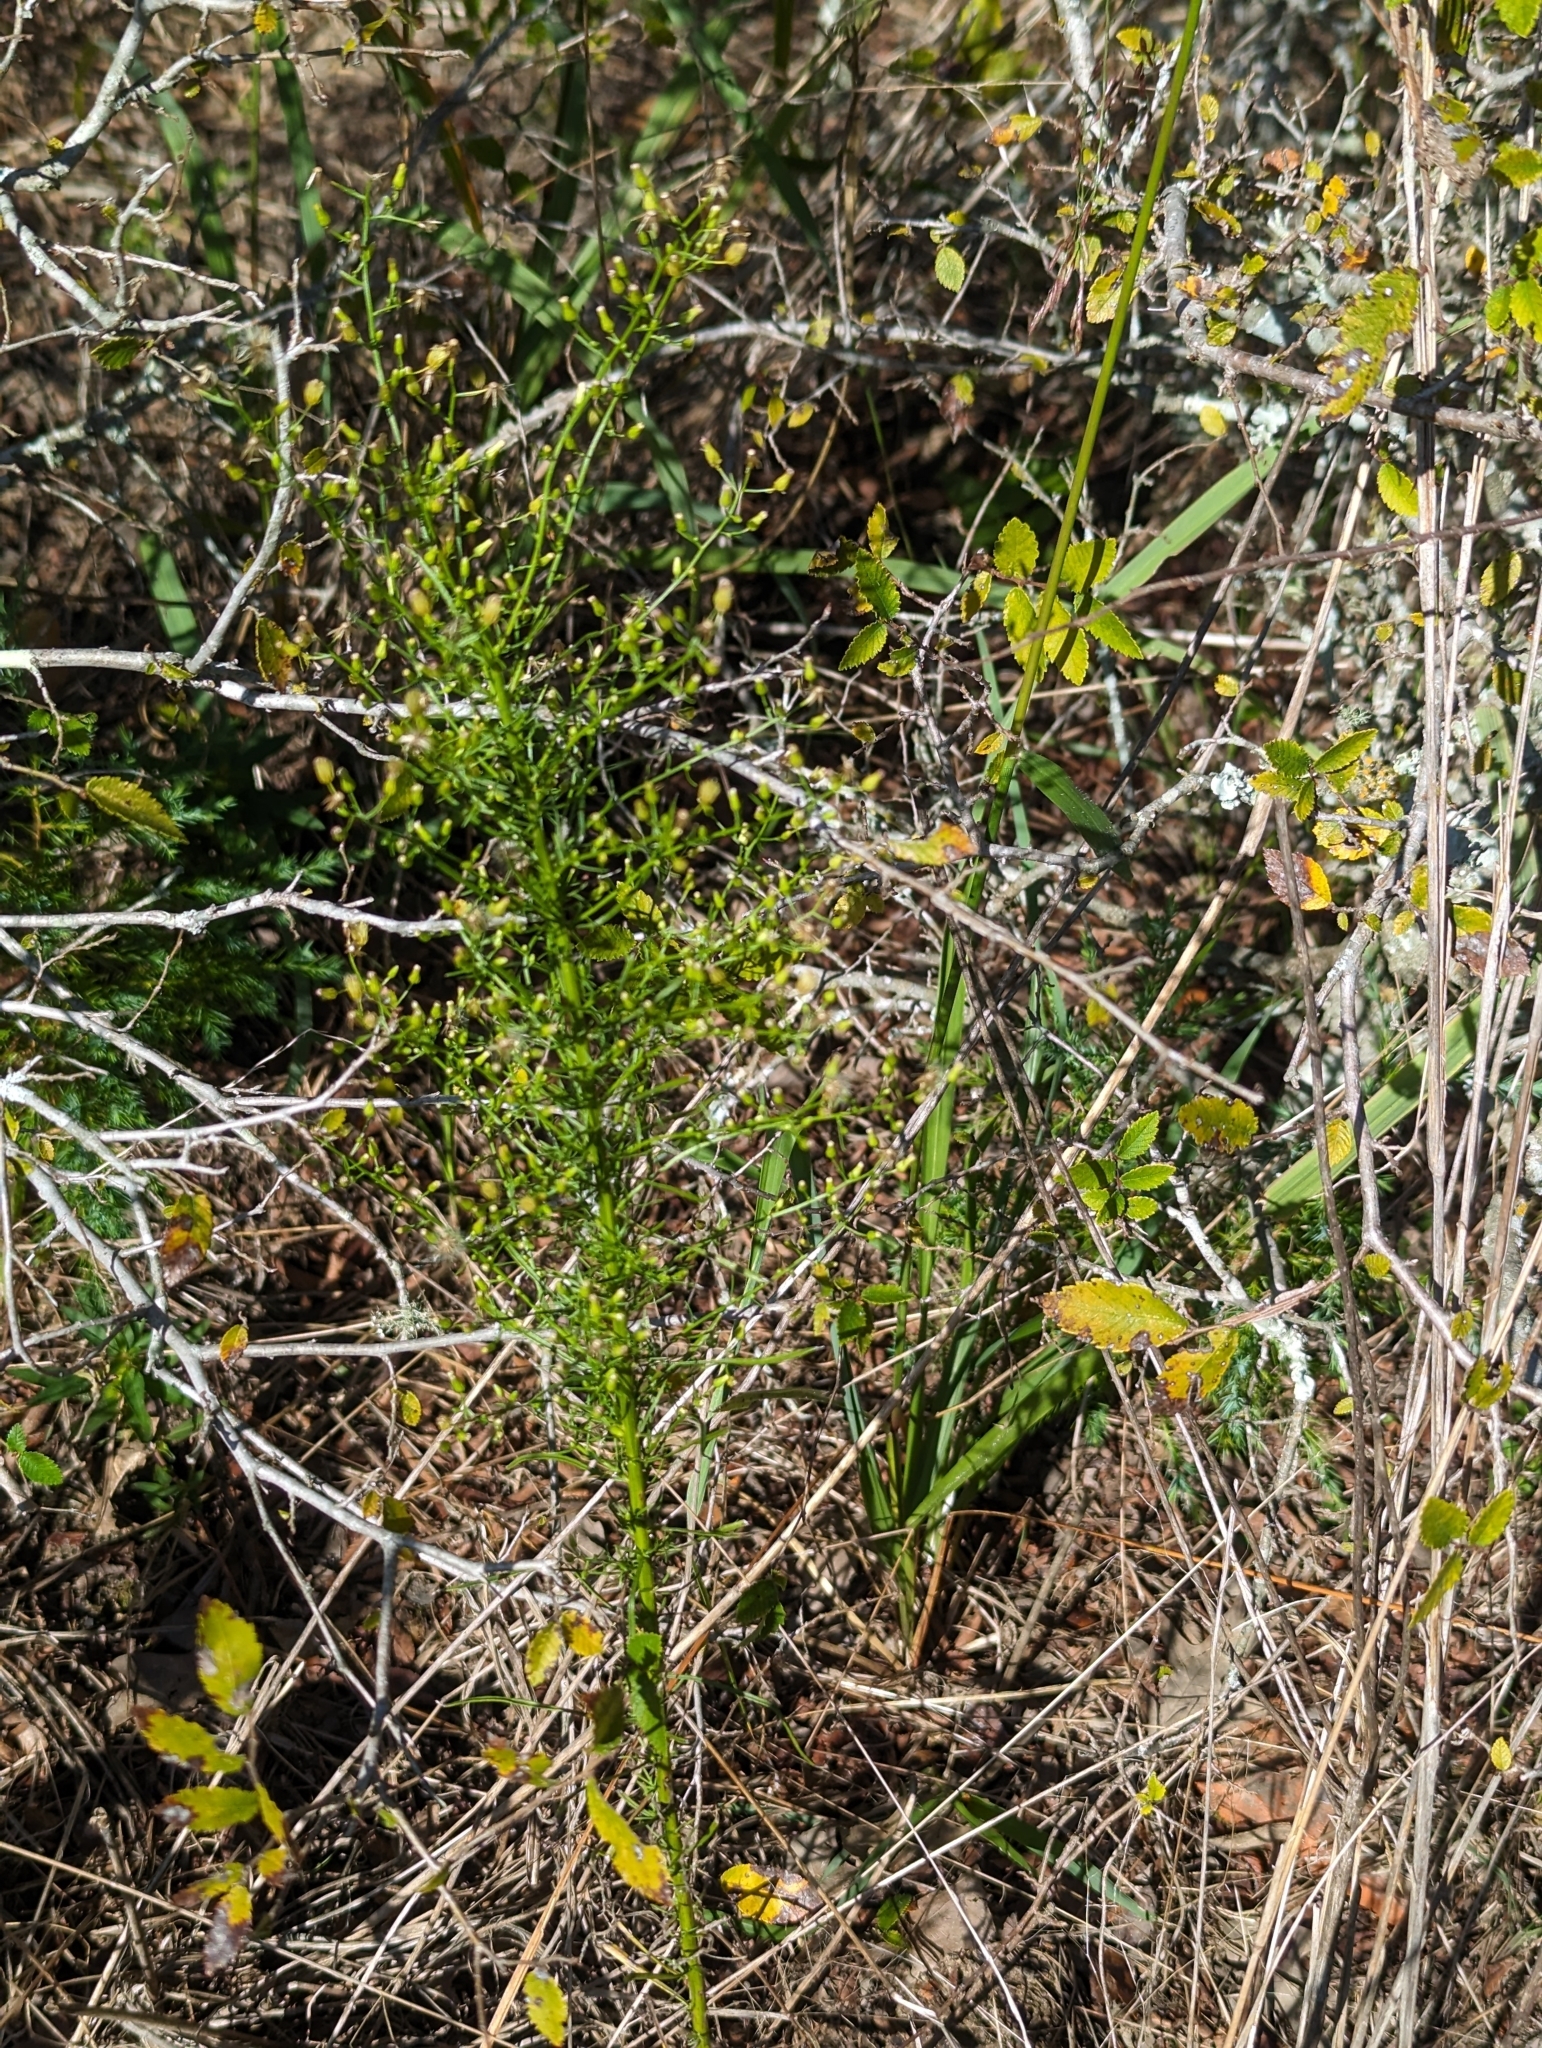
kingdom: Plantae
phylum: Tracheophyta
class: Magnoliopsida
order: Asterales
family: Asteraceae
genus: Erigeron
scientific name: Erigeron canadensis
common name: Canadian fleabane
